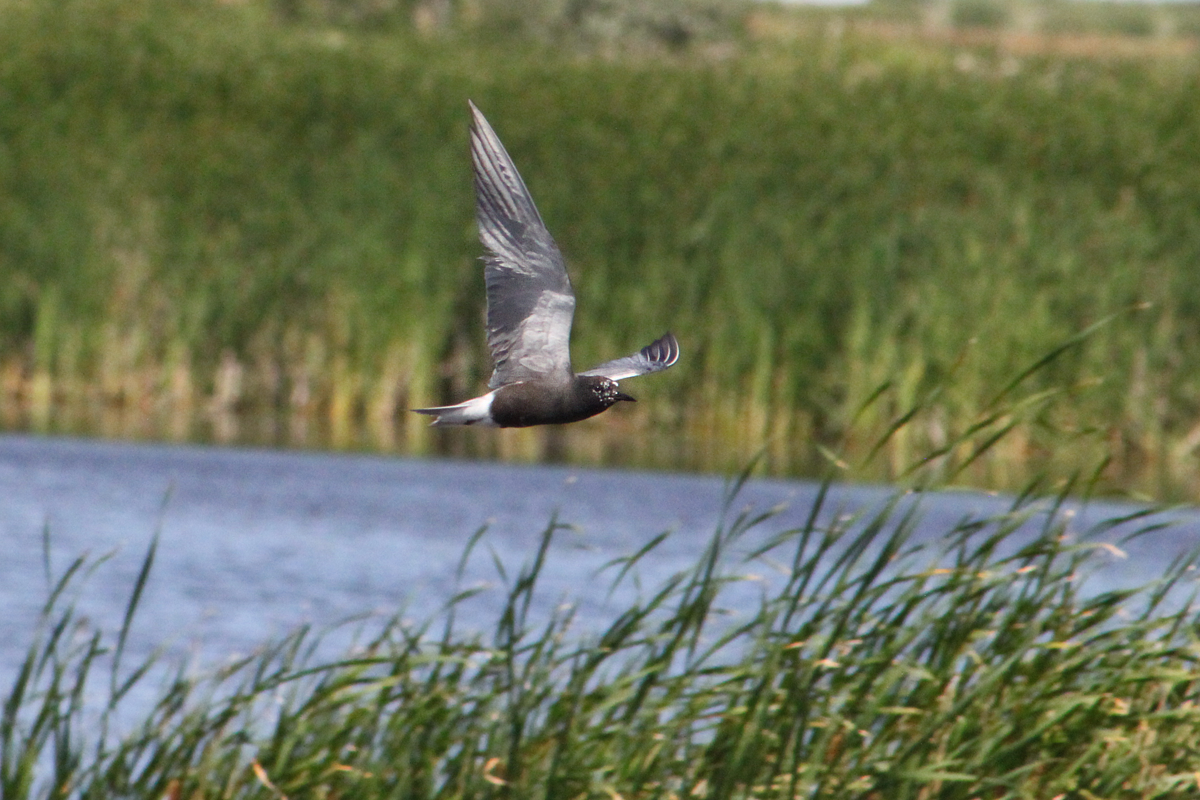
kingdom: Animalia
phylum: Chordata
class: Aves
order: Charadriiformes
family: Laridae
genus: Chlidonias
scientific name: Chlidonias niger
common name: Black tern
